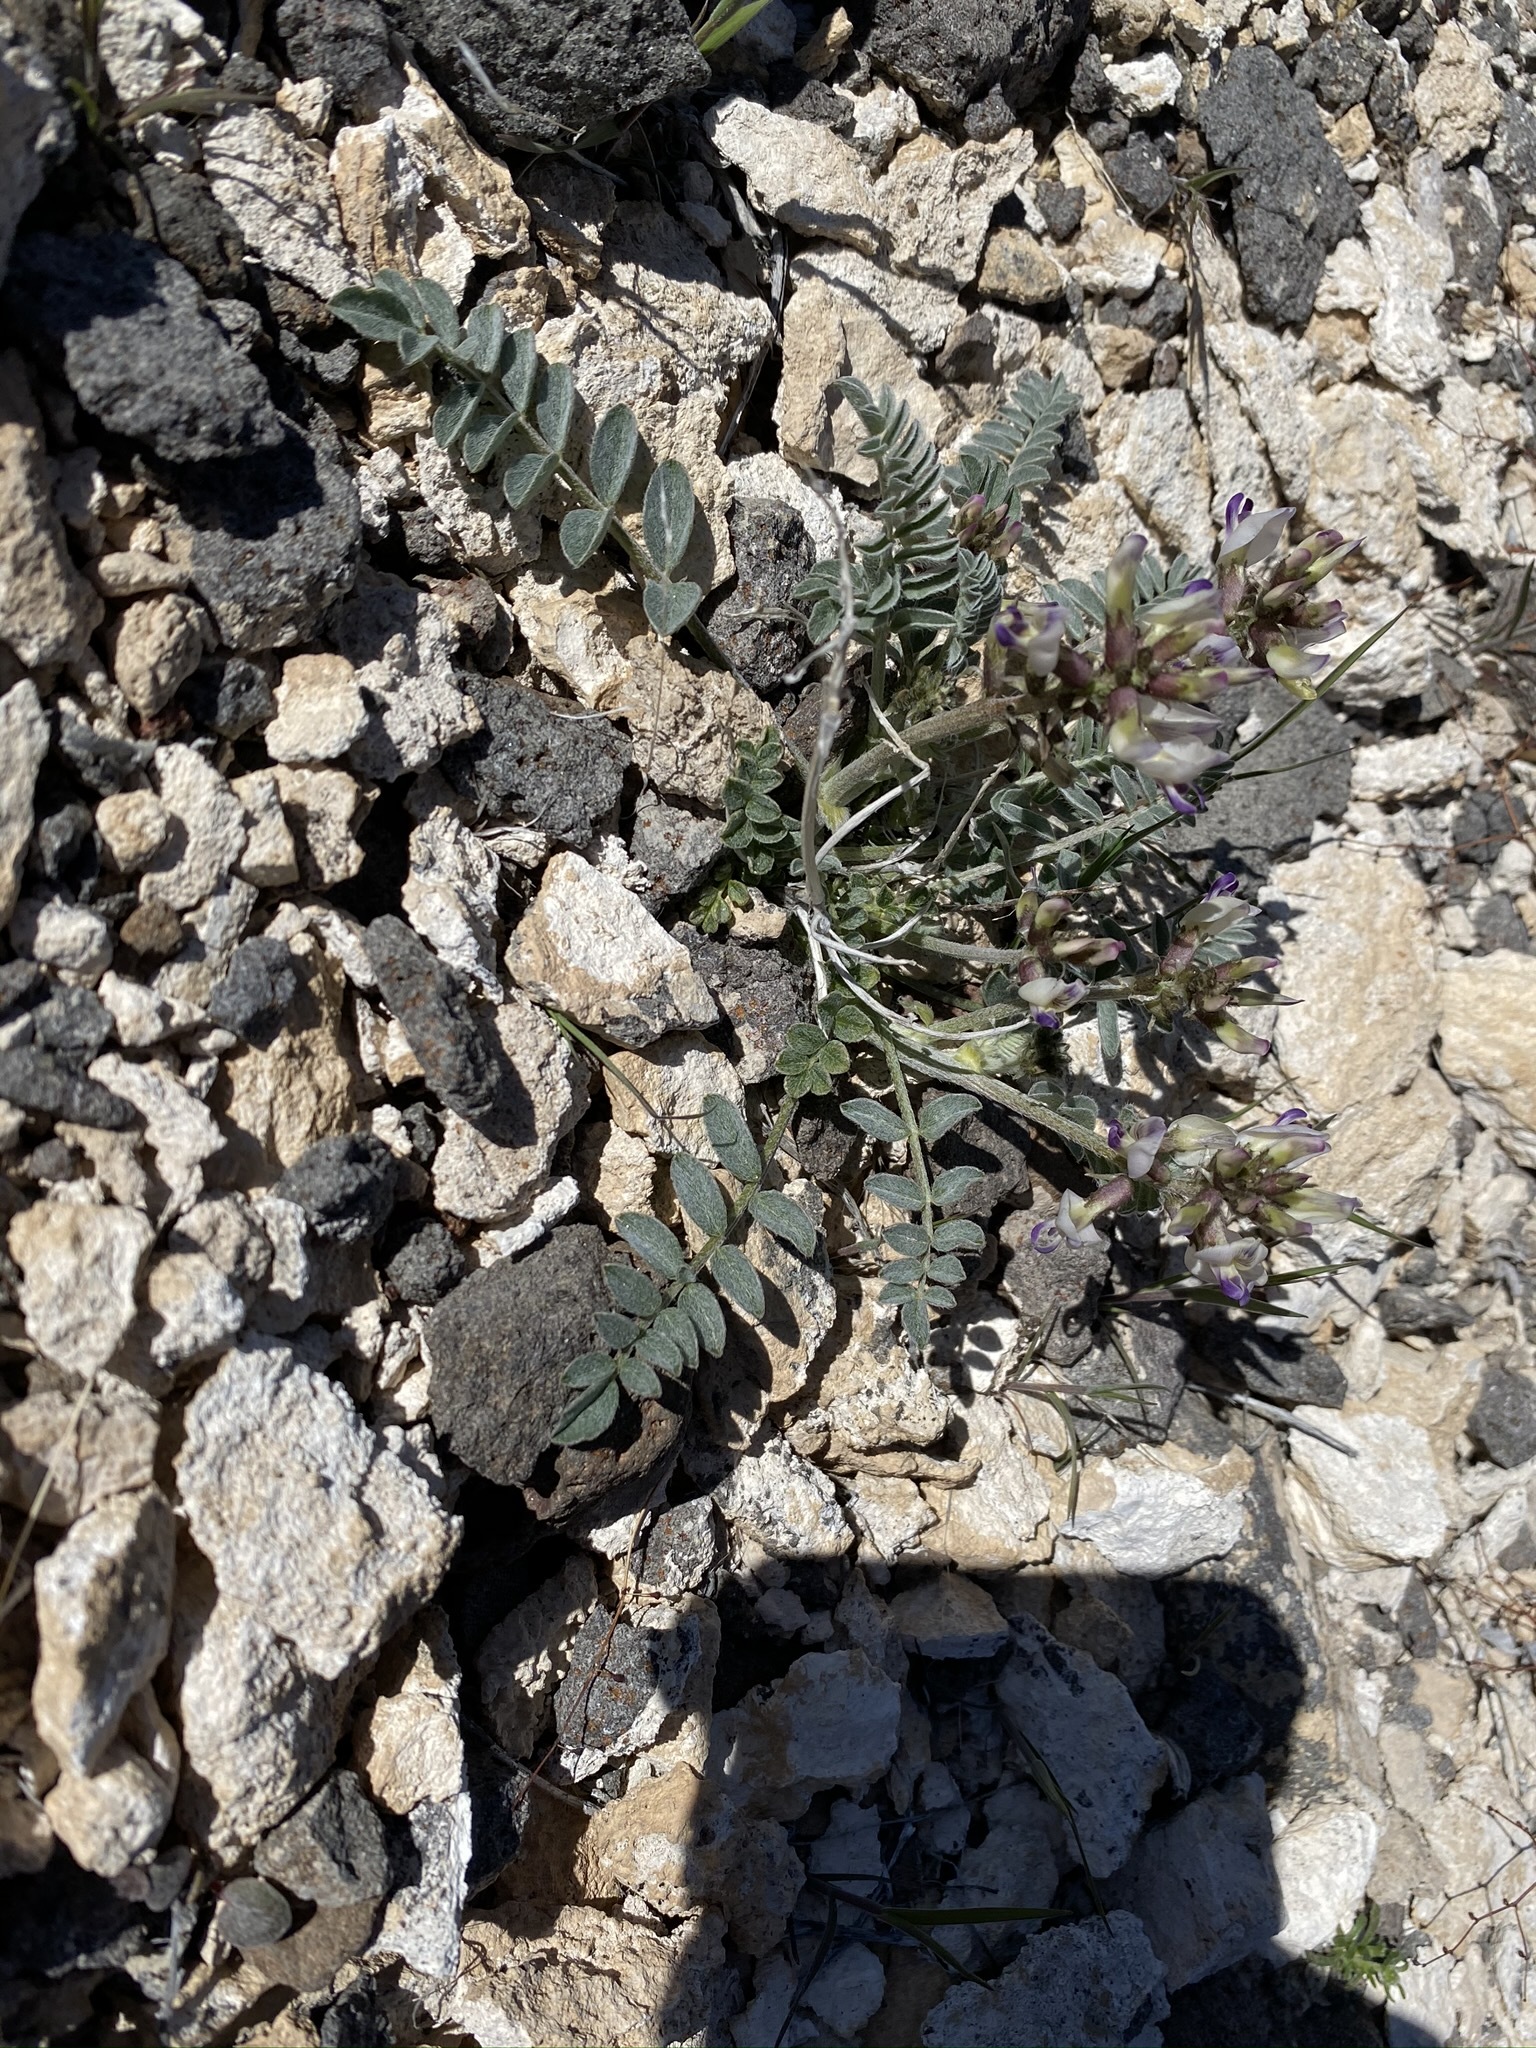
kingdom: Plantae
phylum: Tracheophyta
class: Magnoliopsida
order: Fabales
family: Fabaceae
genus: Astragalus
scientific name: Astragalus layneae
